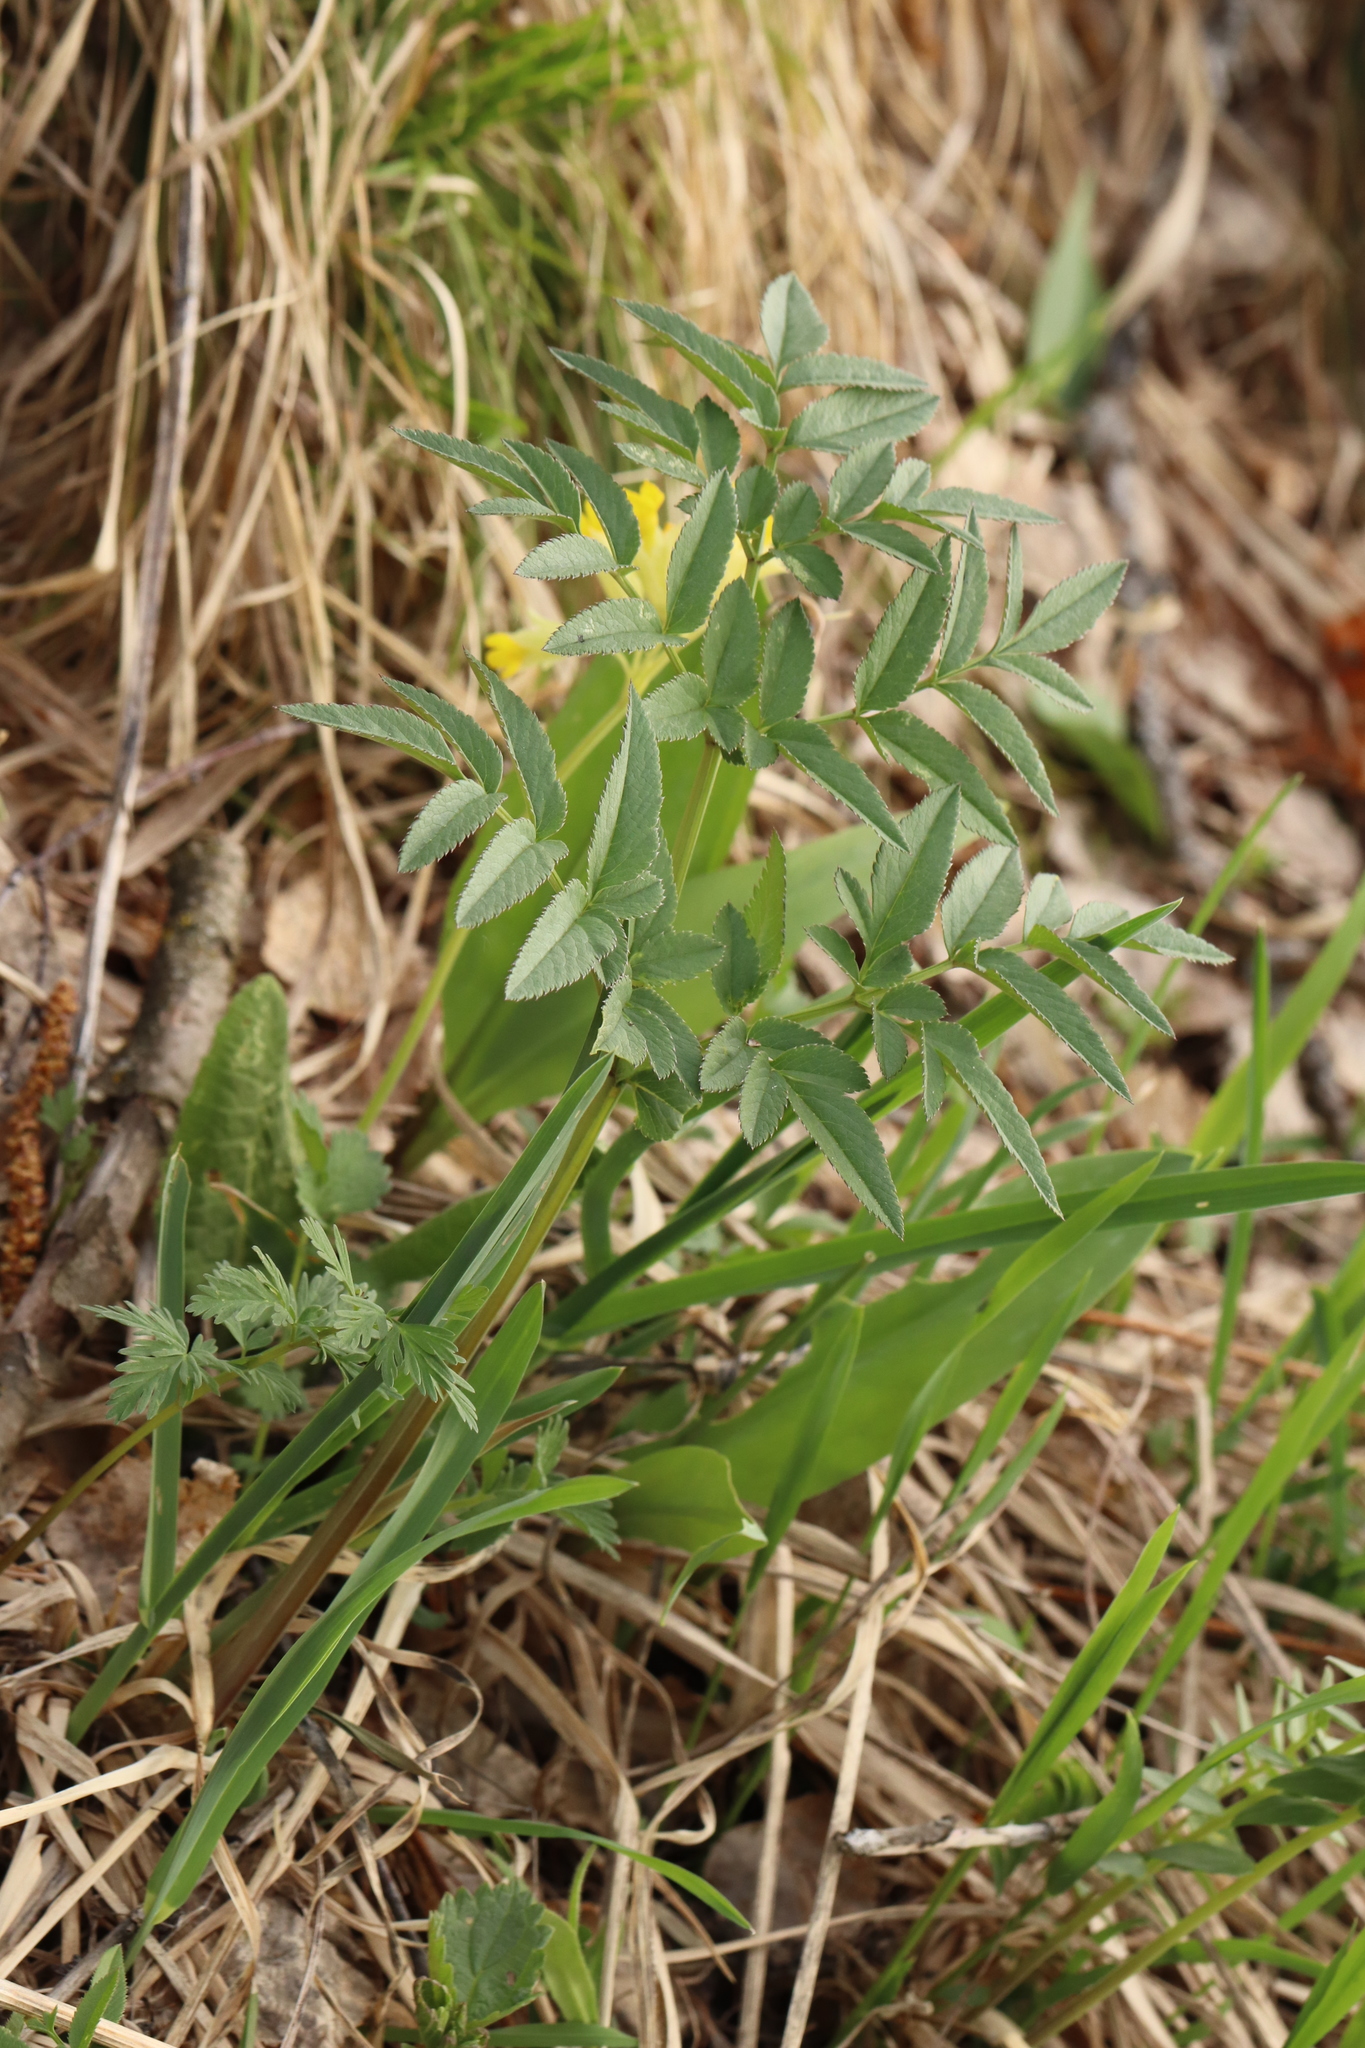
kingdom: Plantae
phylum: Tracheophyta
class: Magnoliopsida
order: Apiales
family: Apiaceae
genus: Angelica
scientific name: Angelica sylvestris
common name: Wild angelica
